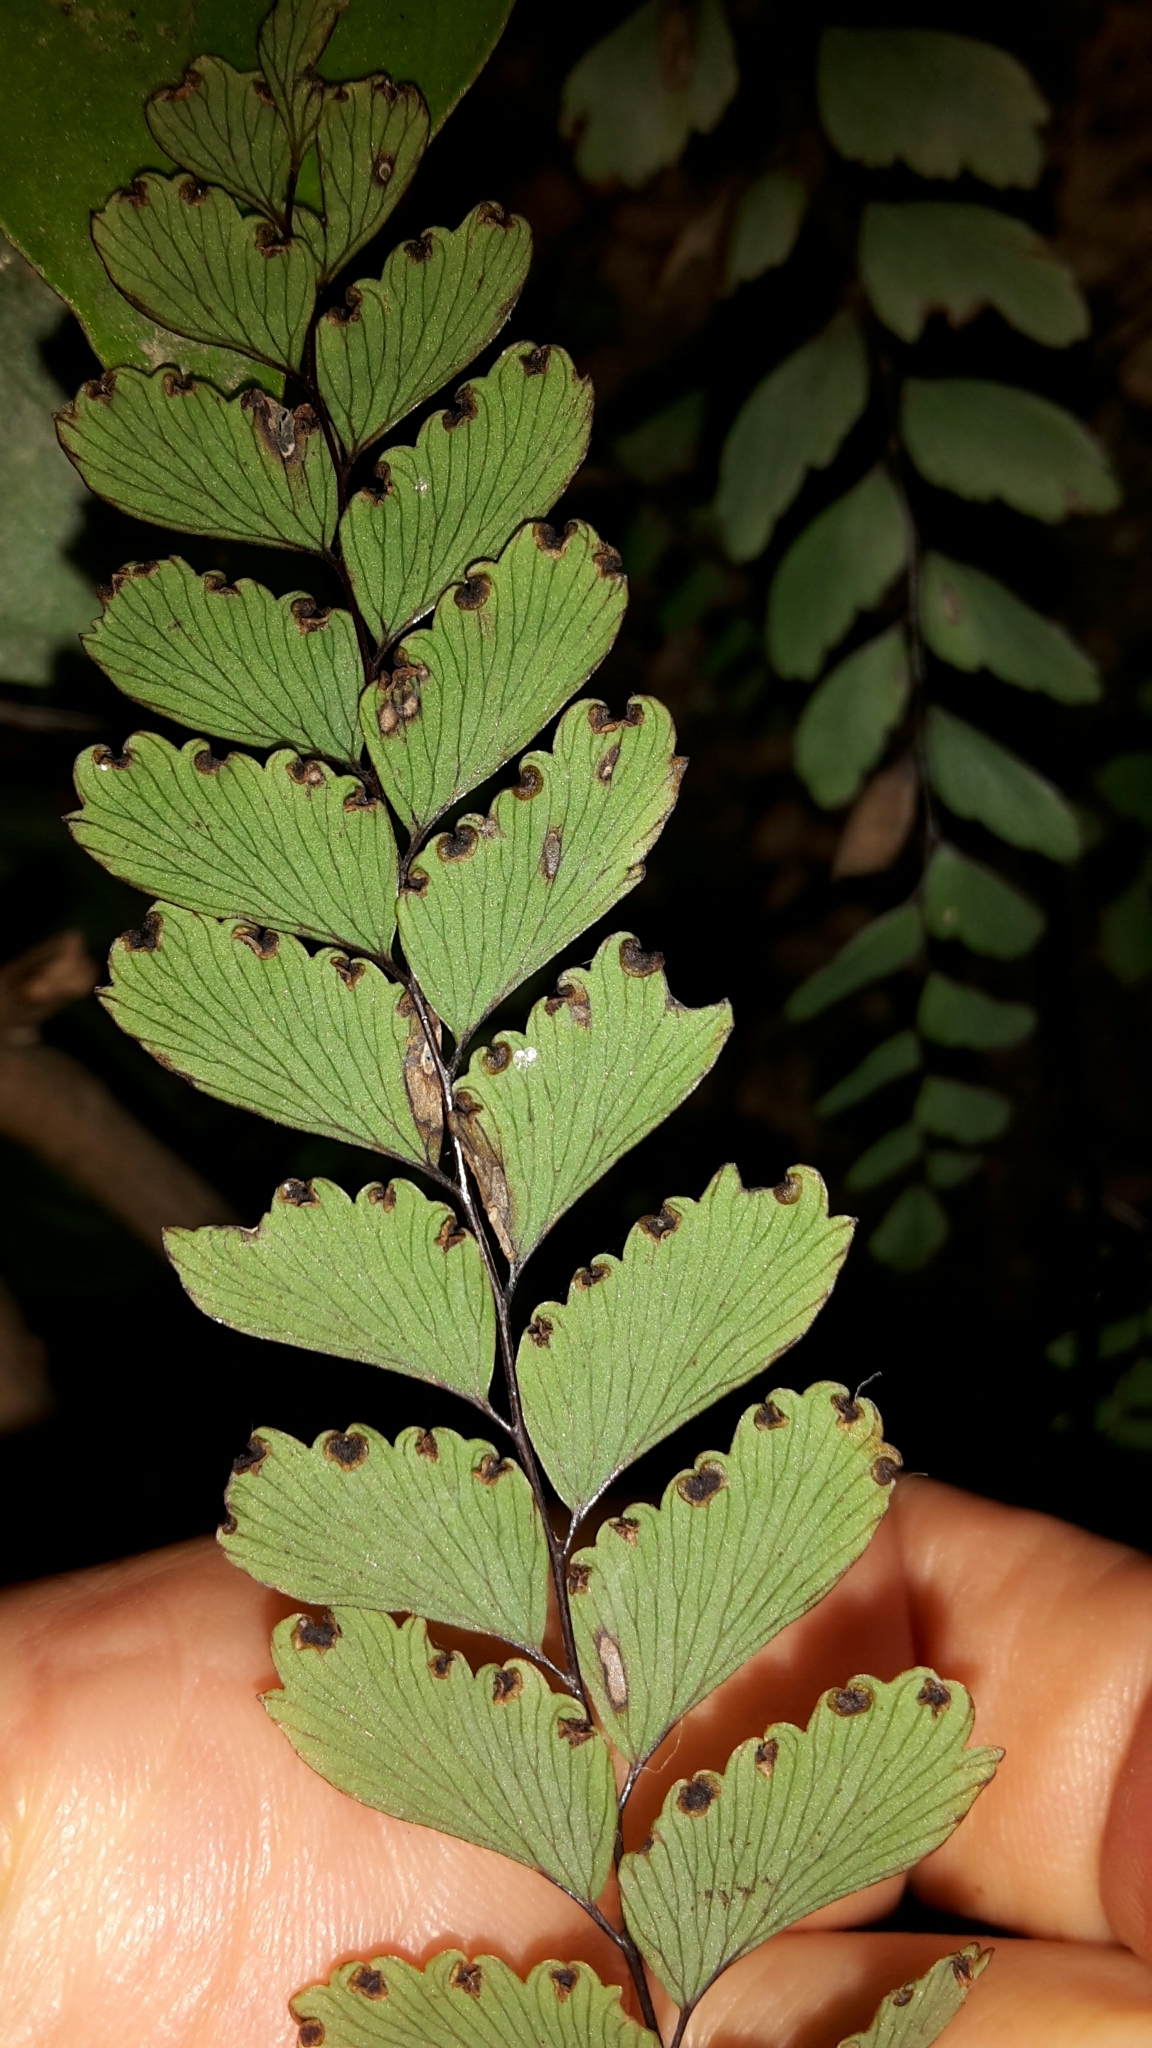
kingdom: Plantae
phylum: Tracheophyta
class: Polypodiopsida
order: Polypodiales
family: Pteridaceae
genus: Adiantum
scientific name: Adiantum cunninghamii
